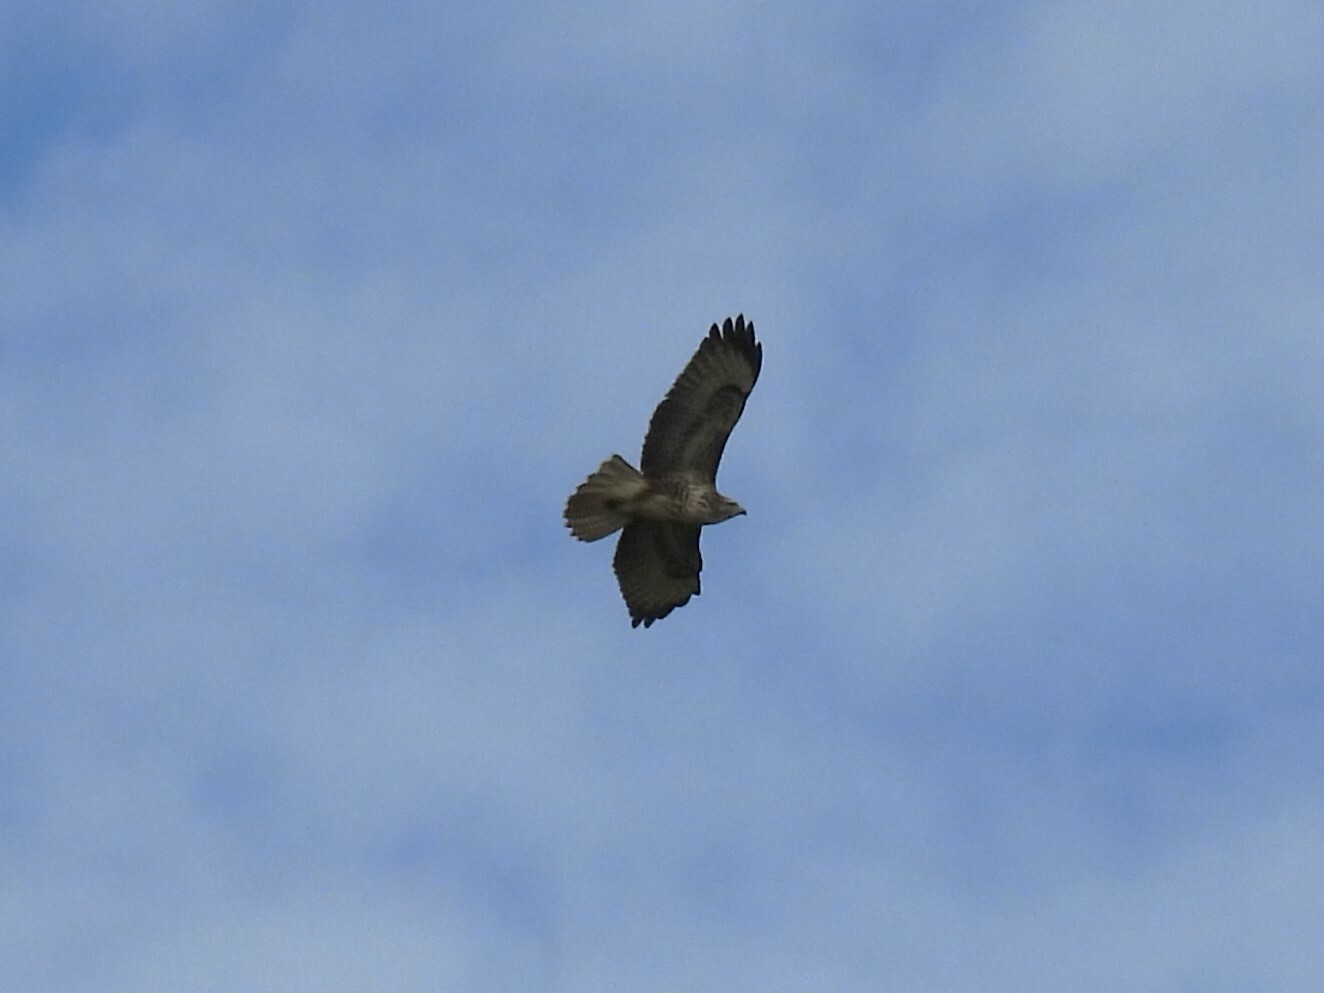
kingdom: Animalia
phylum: Chordata
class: Aves
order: Accipitriformes
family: Accipitridae
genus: Buteo
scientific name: Buteo buteo
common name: Common buzzard
